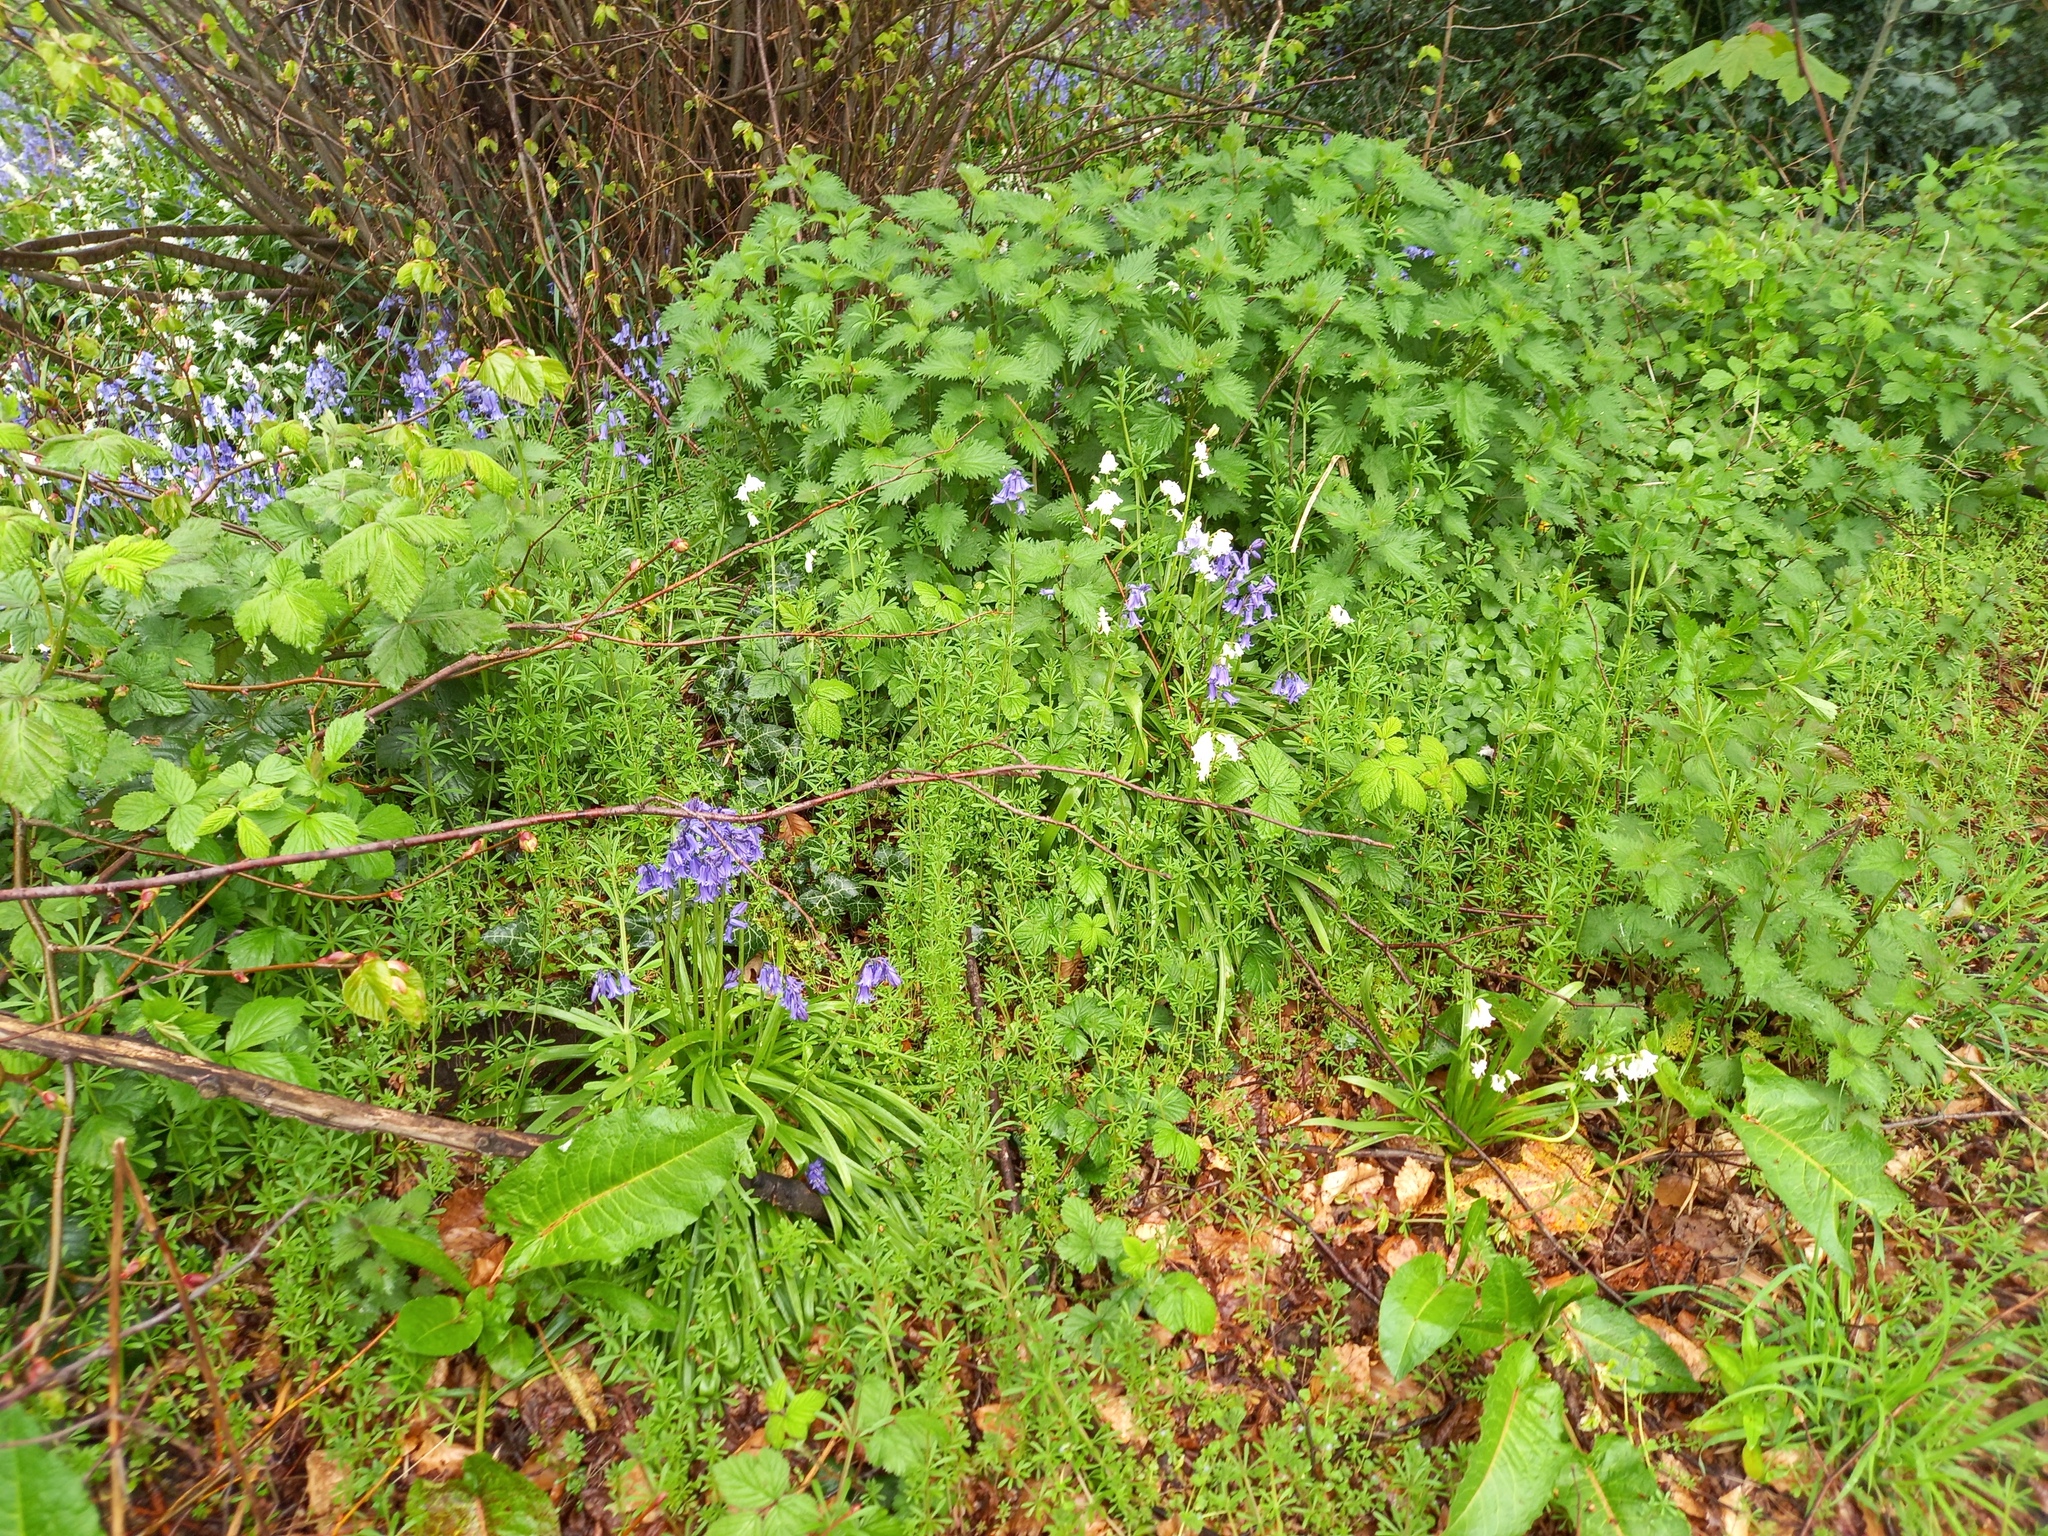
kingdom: Plantae
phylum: Tracheophyta
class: Magnoliopsida
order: Rosales
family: Urticaceae
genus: Urtica
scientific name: Urtica dioica
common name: Common nettle
